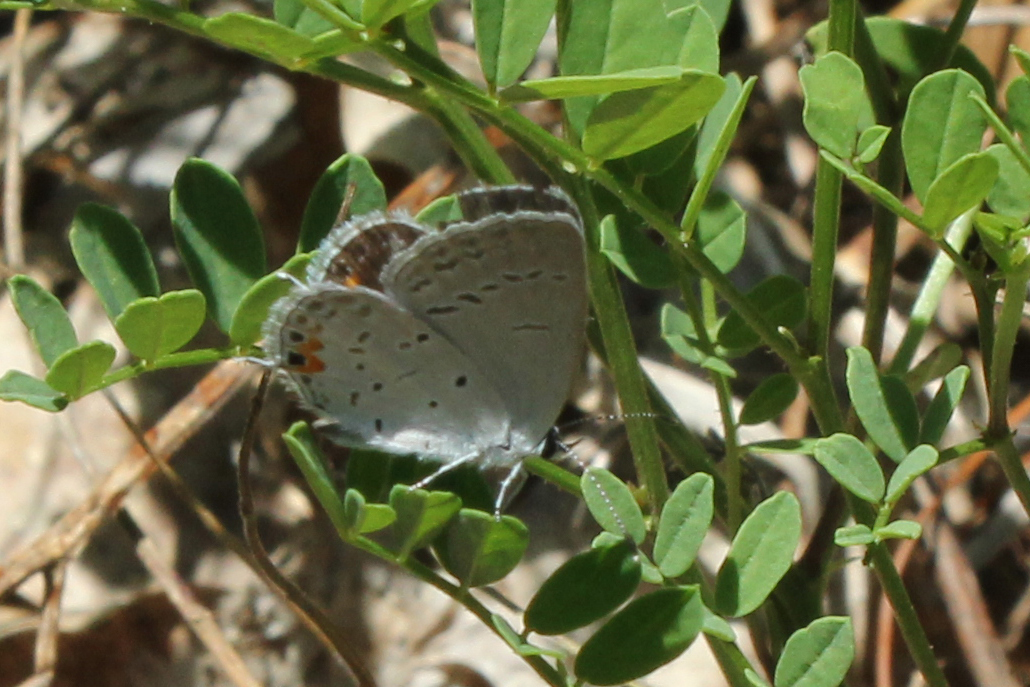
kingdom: Animalia
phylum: Arthropoda
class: Insecta
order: Lepidoptera
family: Lycaenidae
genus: Elkalyce
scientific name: Elkalyce comyntas
